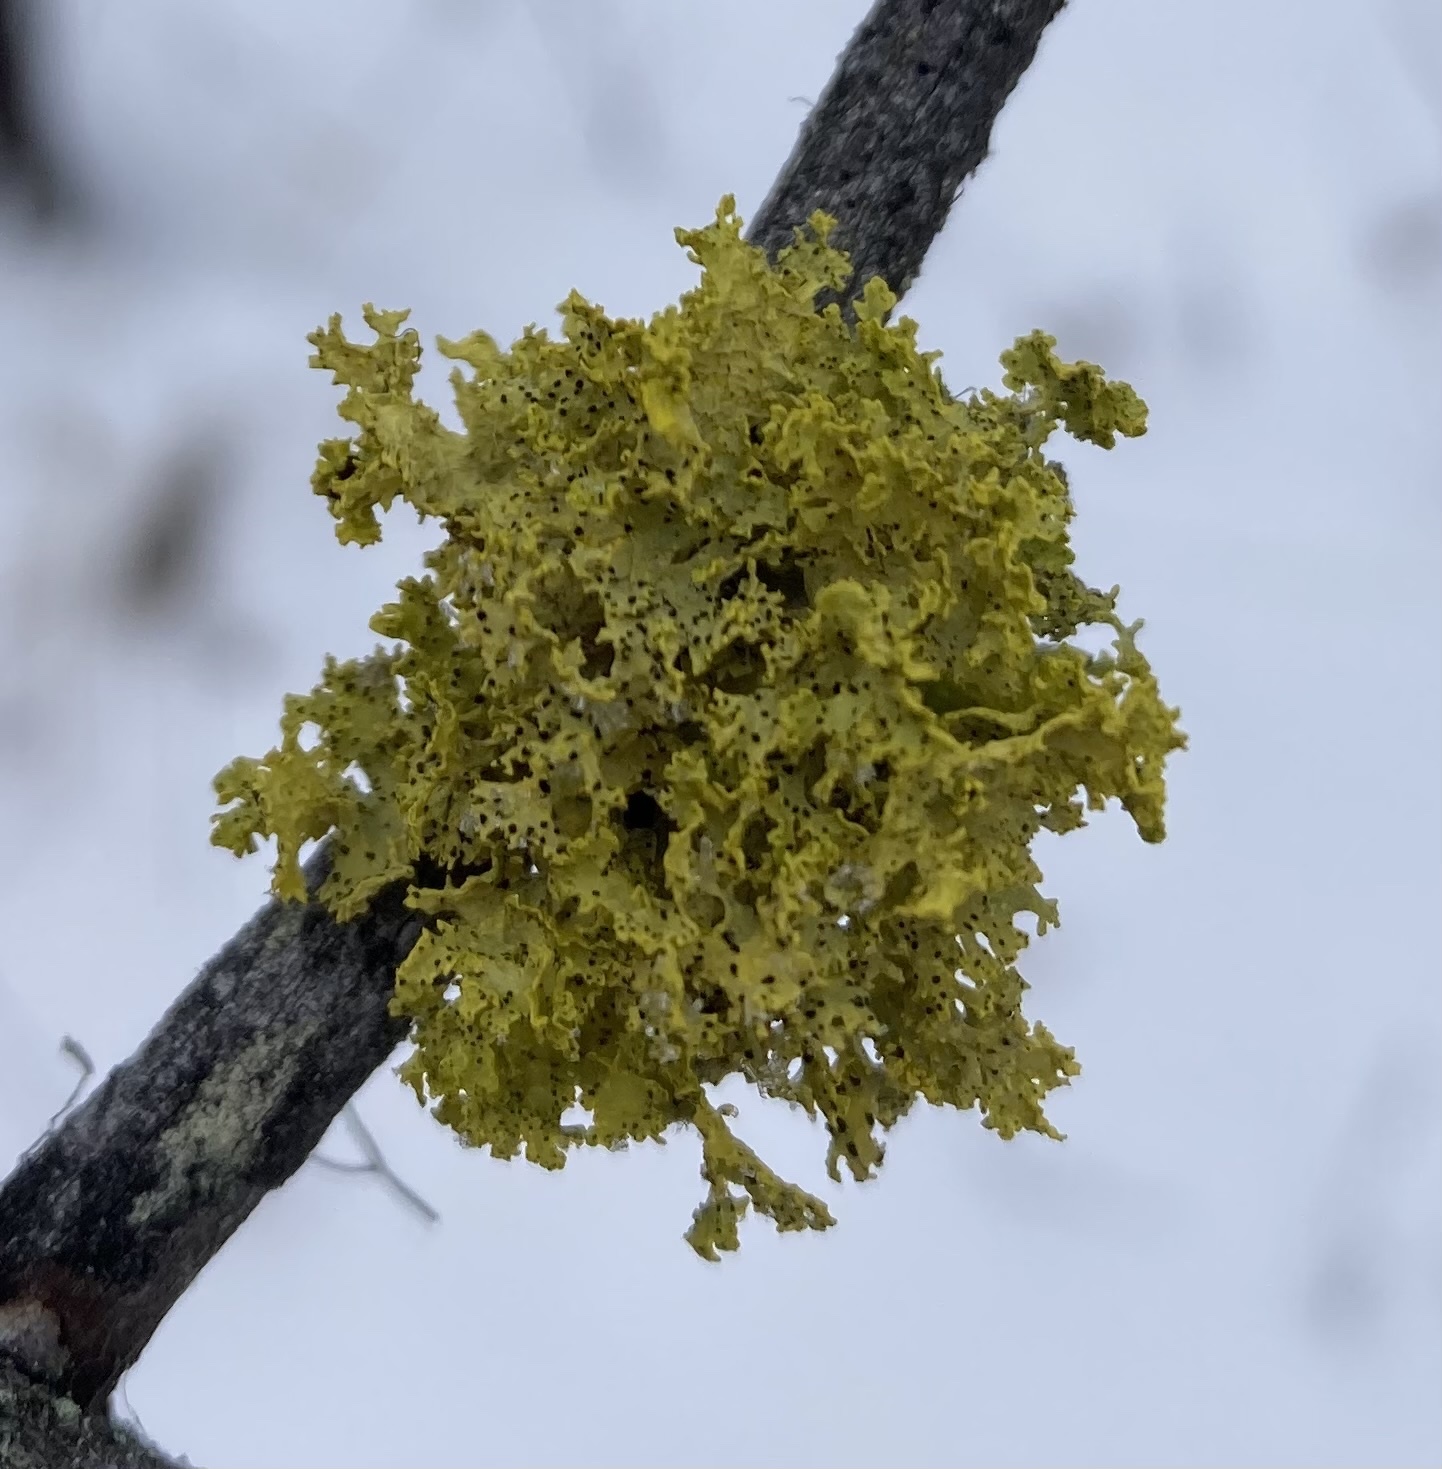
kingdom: Fungi
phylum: Ascomycota
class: Lecanoromycetes
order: Lecanorales
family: Parmeliaceae
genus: Vulpicida
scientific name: Vulpicida canadensis
